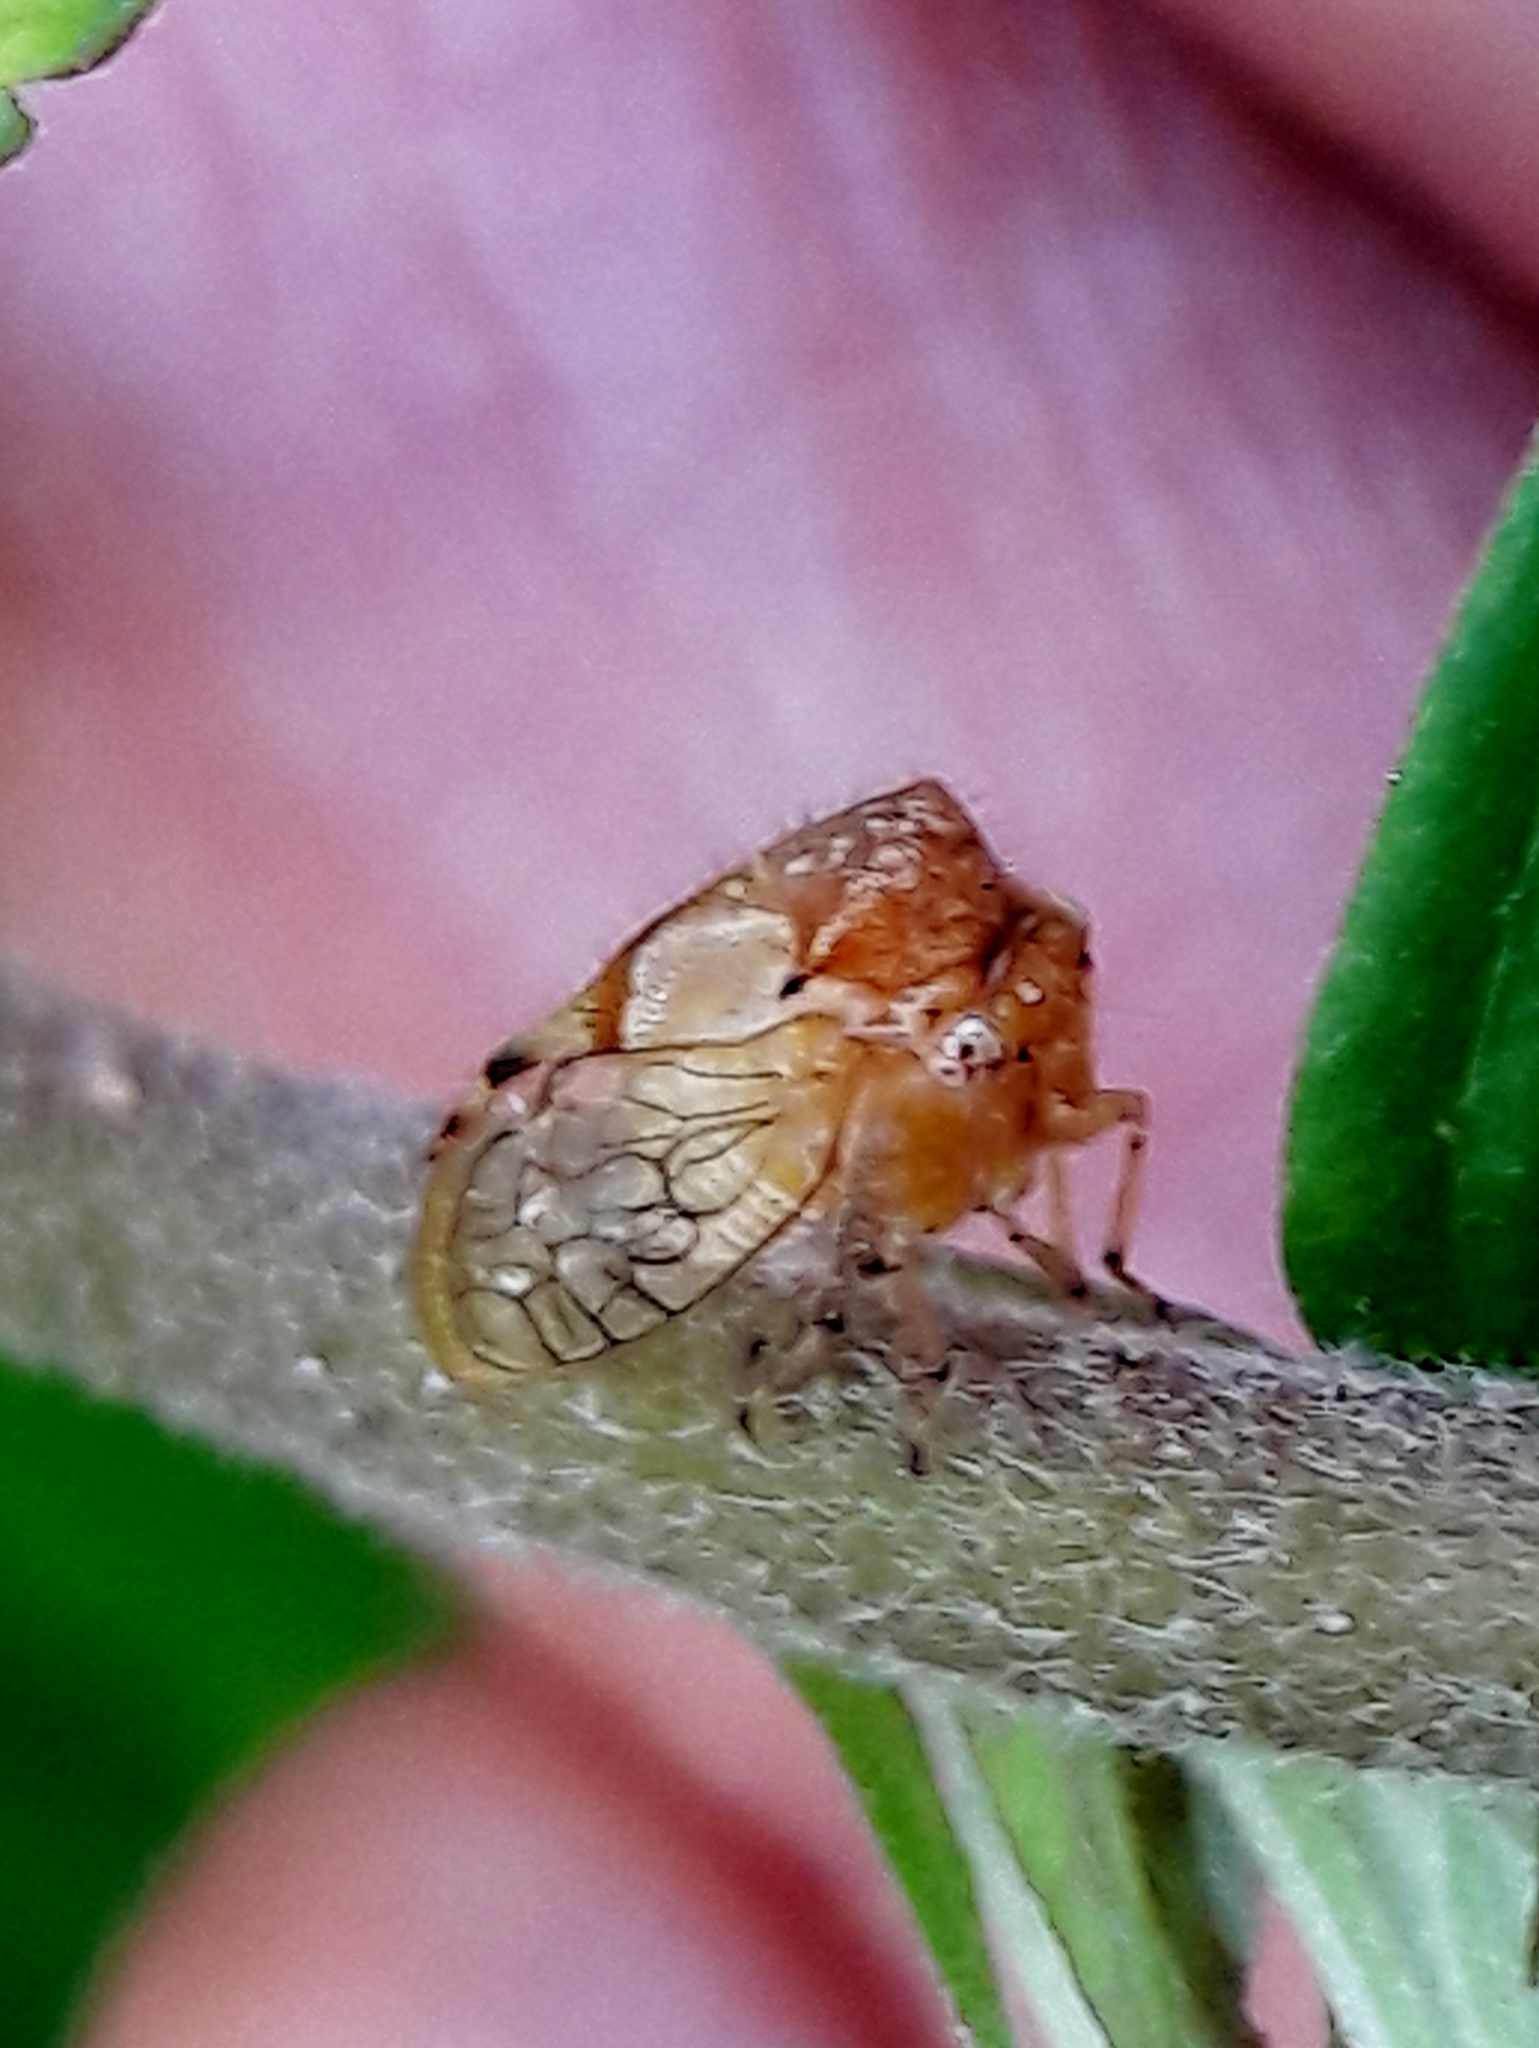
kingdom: Animalia
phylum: Arthropoda
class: Insecta
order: Hemiptera
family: Membracidae
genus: Paraceresa
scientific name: Paraceresa bifasciata
